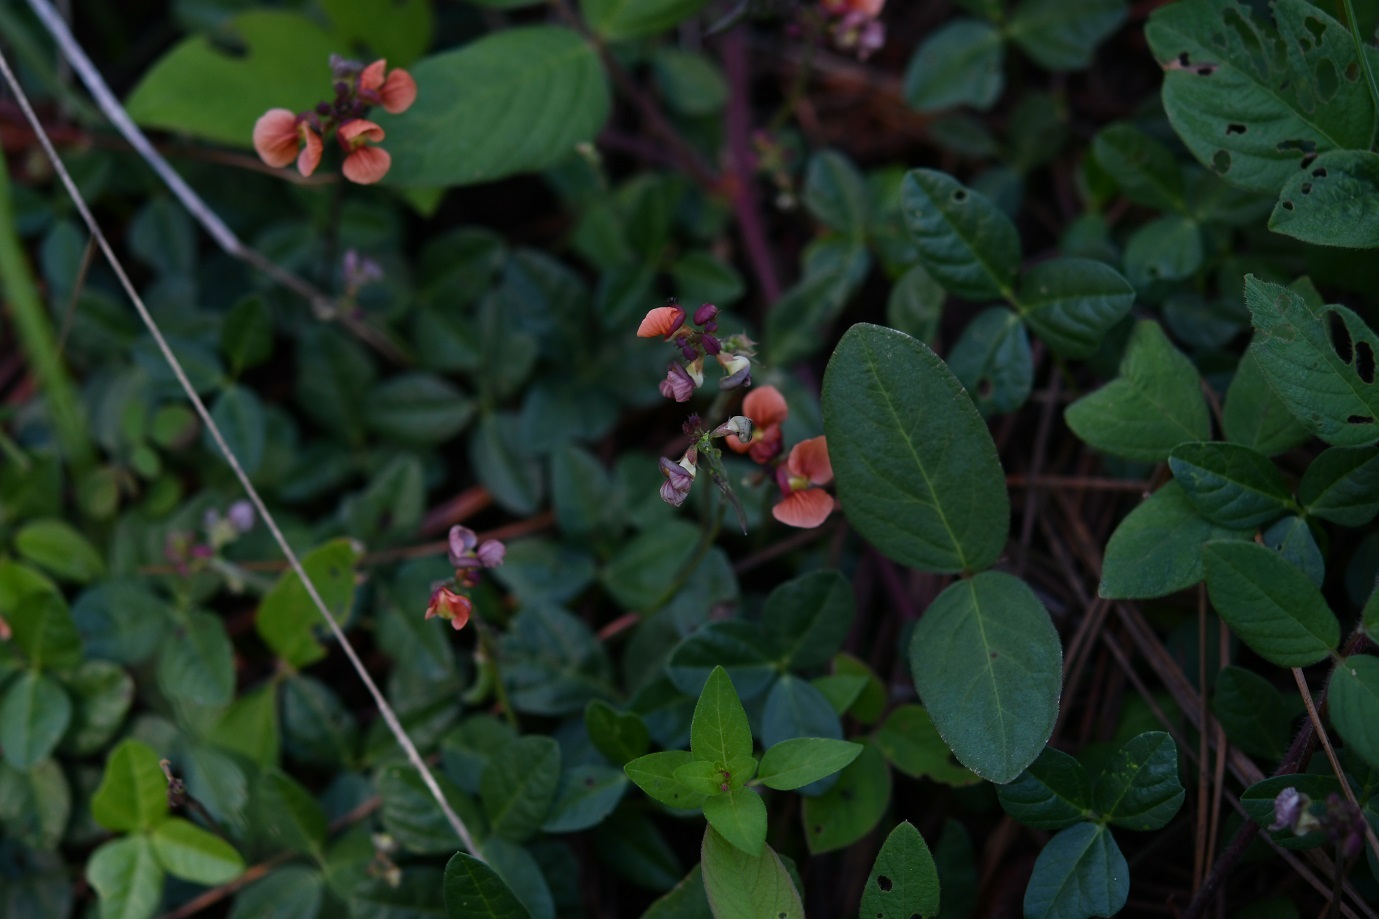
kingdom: Plantae
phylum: Tracheophyta
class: Magnoliopsida
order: Fabales
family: Fabaceae
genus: Macroptilium
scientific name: Macroptilium gibbosifolium
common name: Variableleaf bushbean
